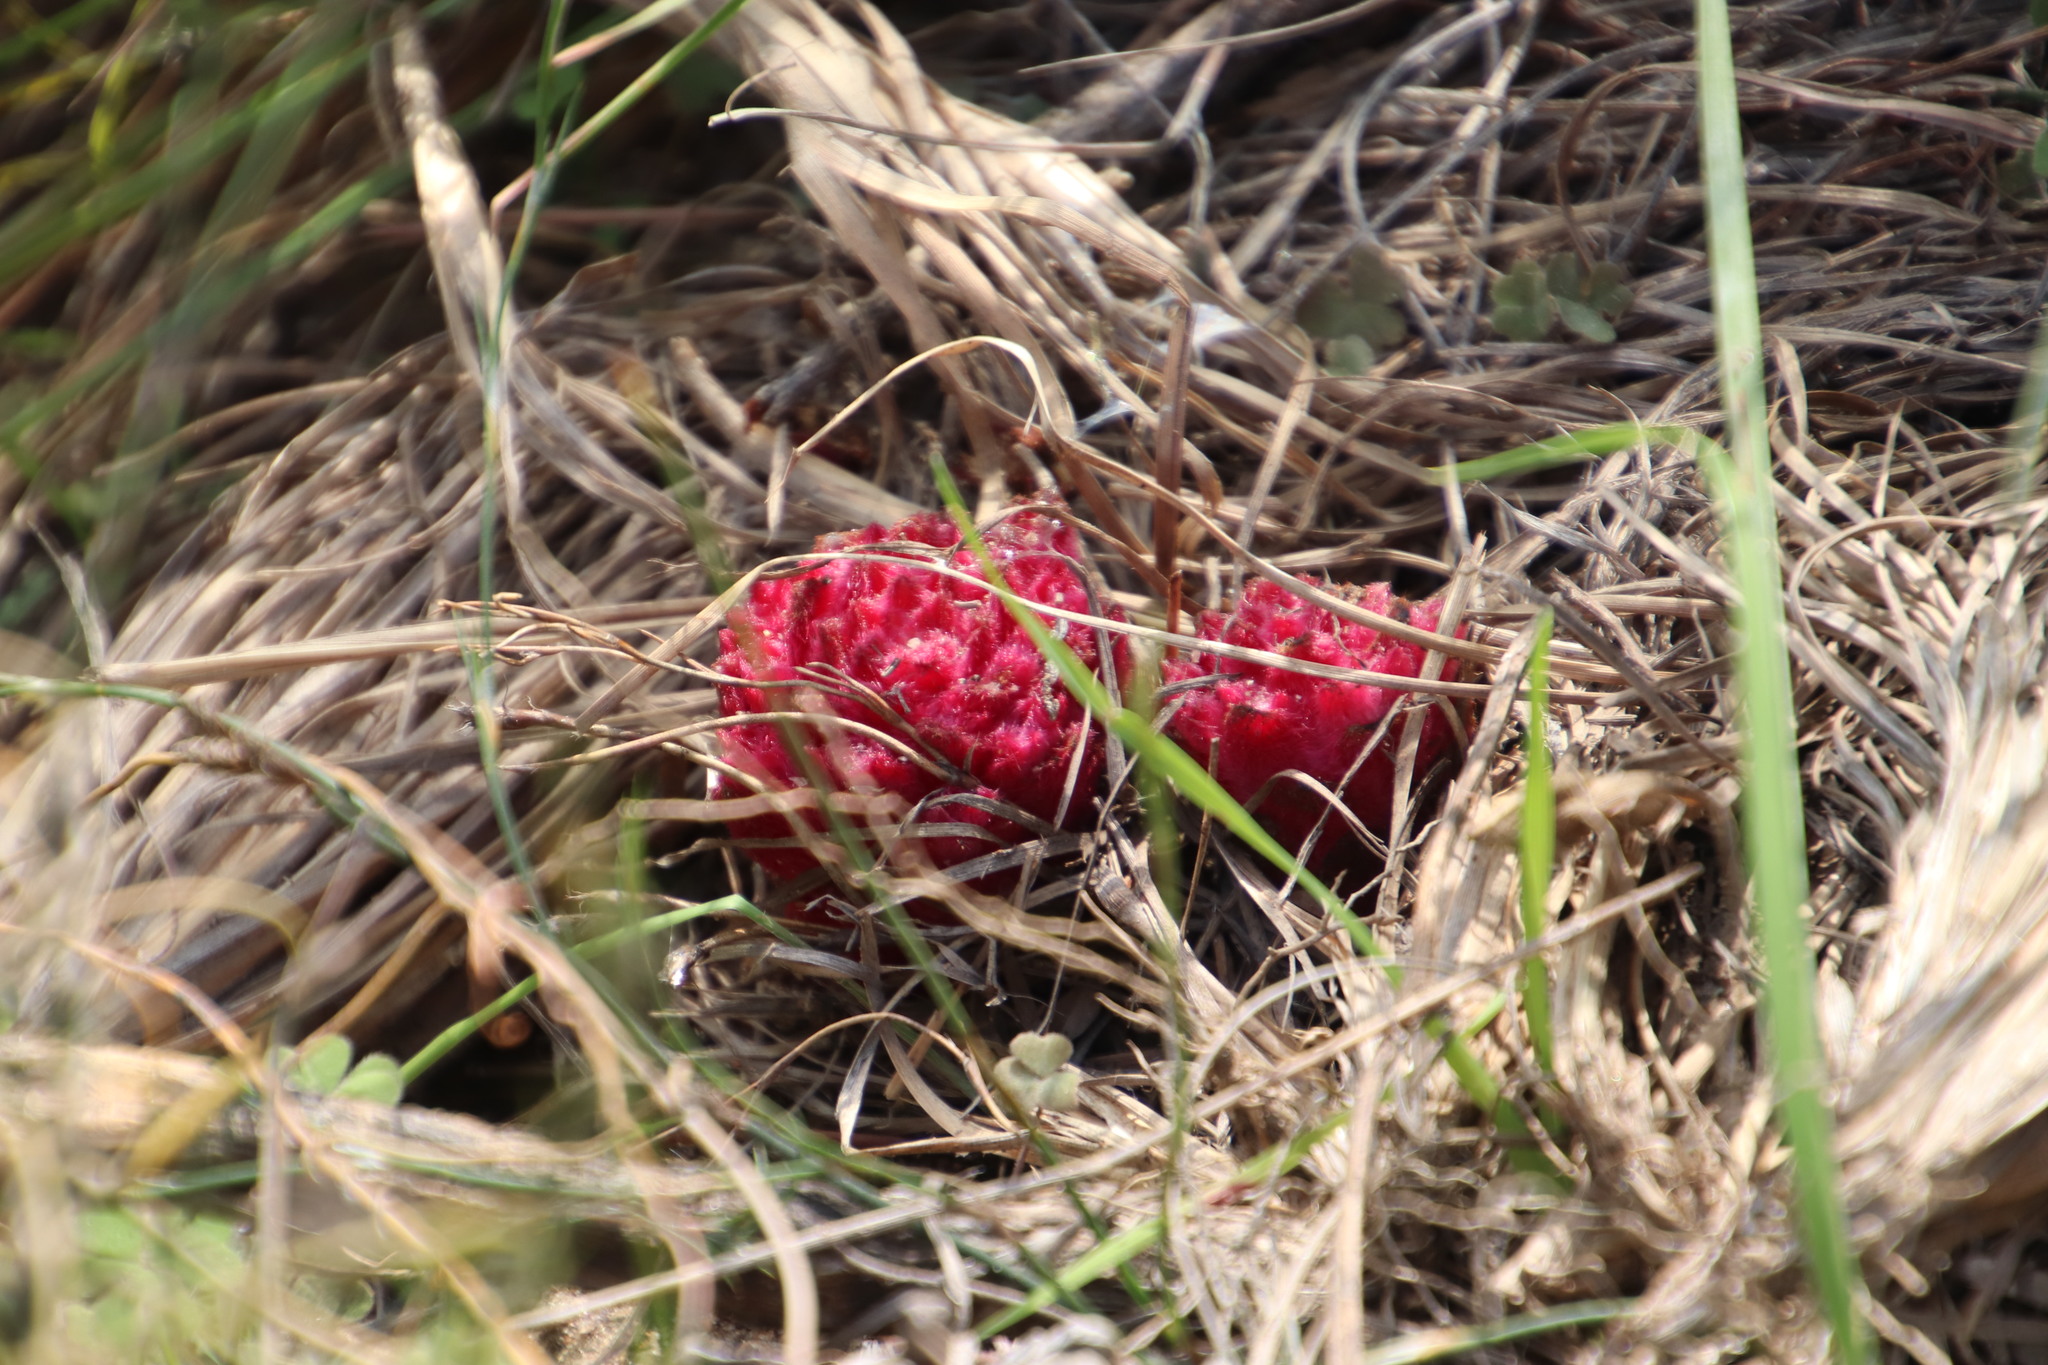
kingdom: Plantae
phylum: Tracheophyta
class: Magnoliopsida
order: Lamiales
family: Orobanchaceae
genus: Hyobanche
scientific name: Hyobanche sanguinea
